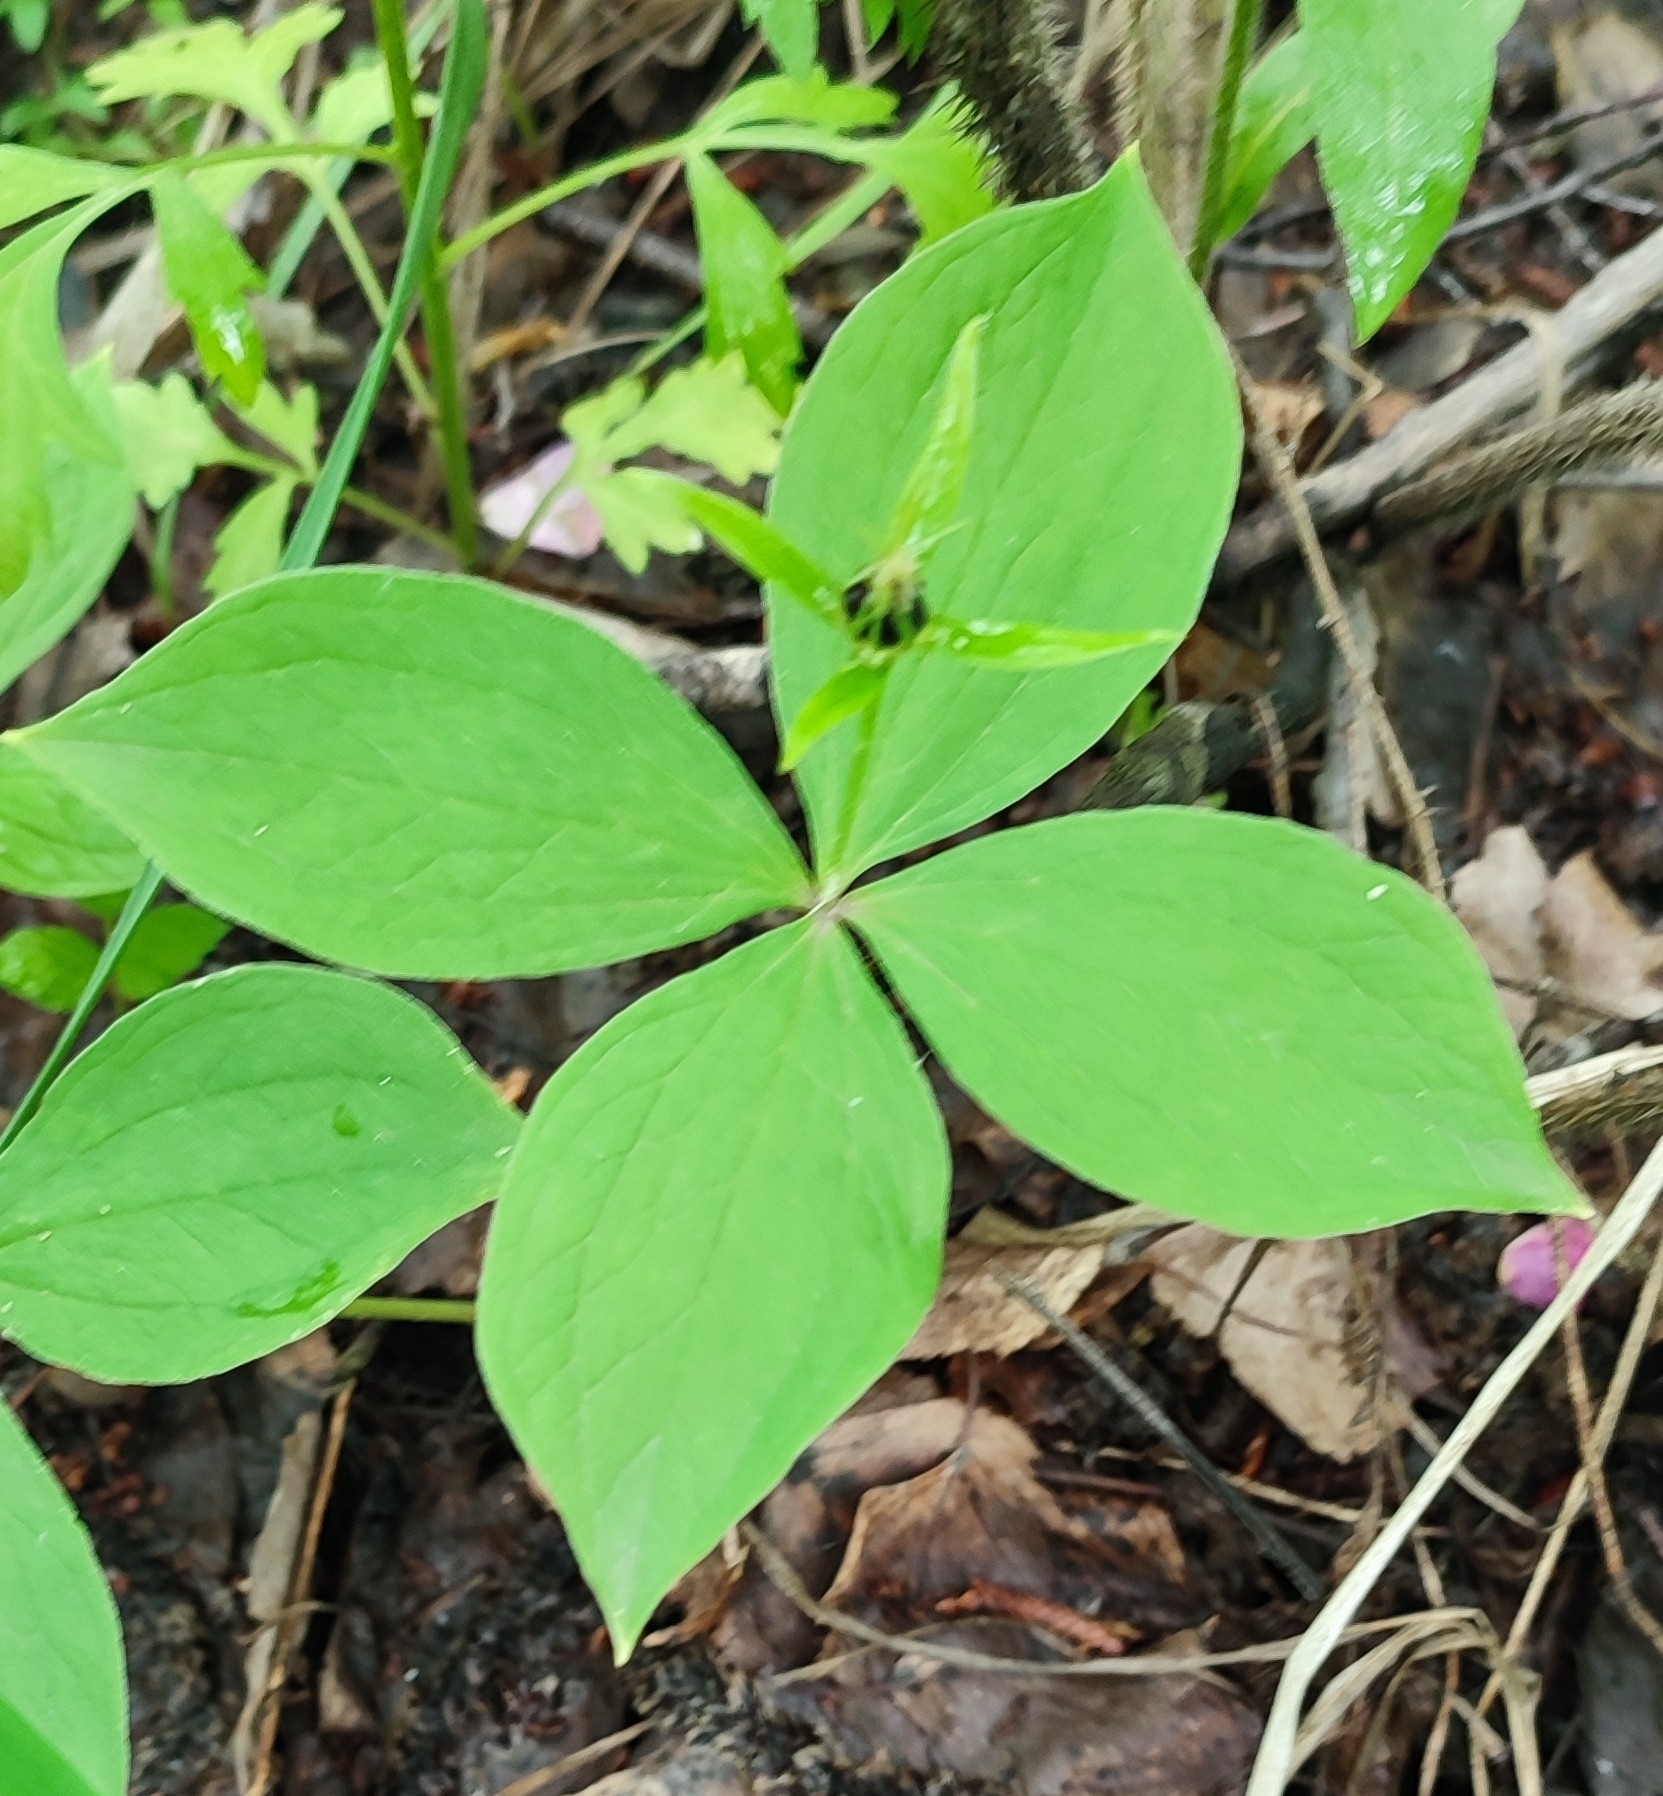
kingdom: Plantae
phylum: Tracheophyta
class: Liliopsida
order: Liliales
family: Melanthiaceae
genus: Paris
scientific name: Paris quadrifolia
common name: Herb-paris
